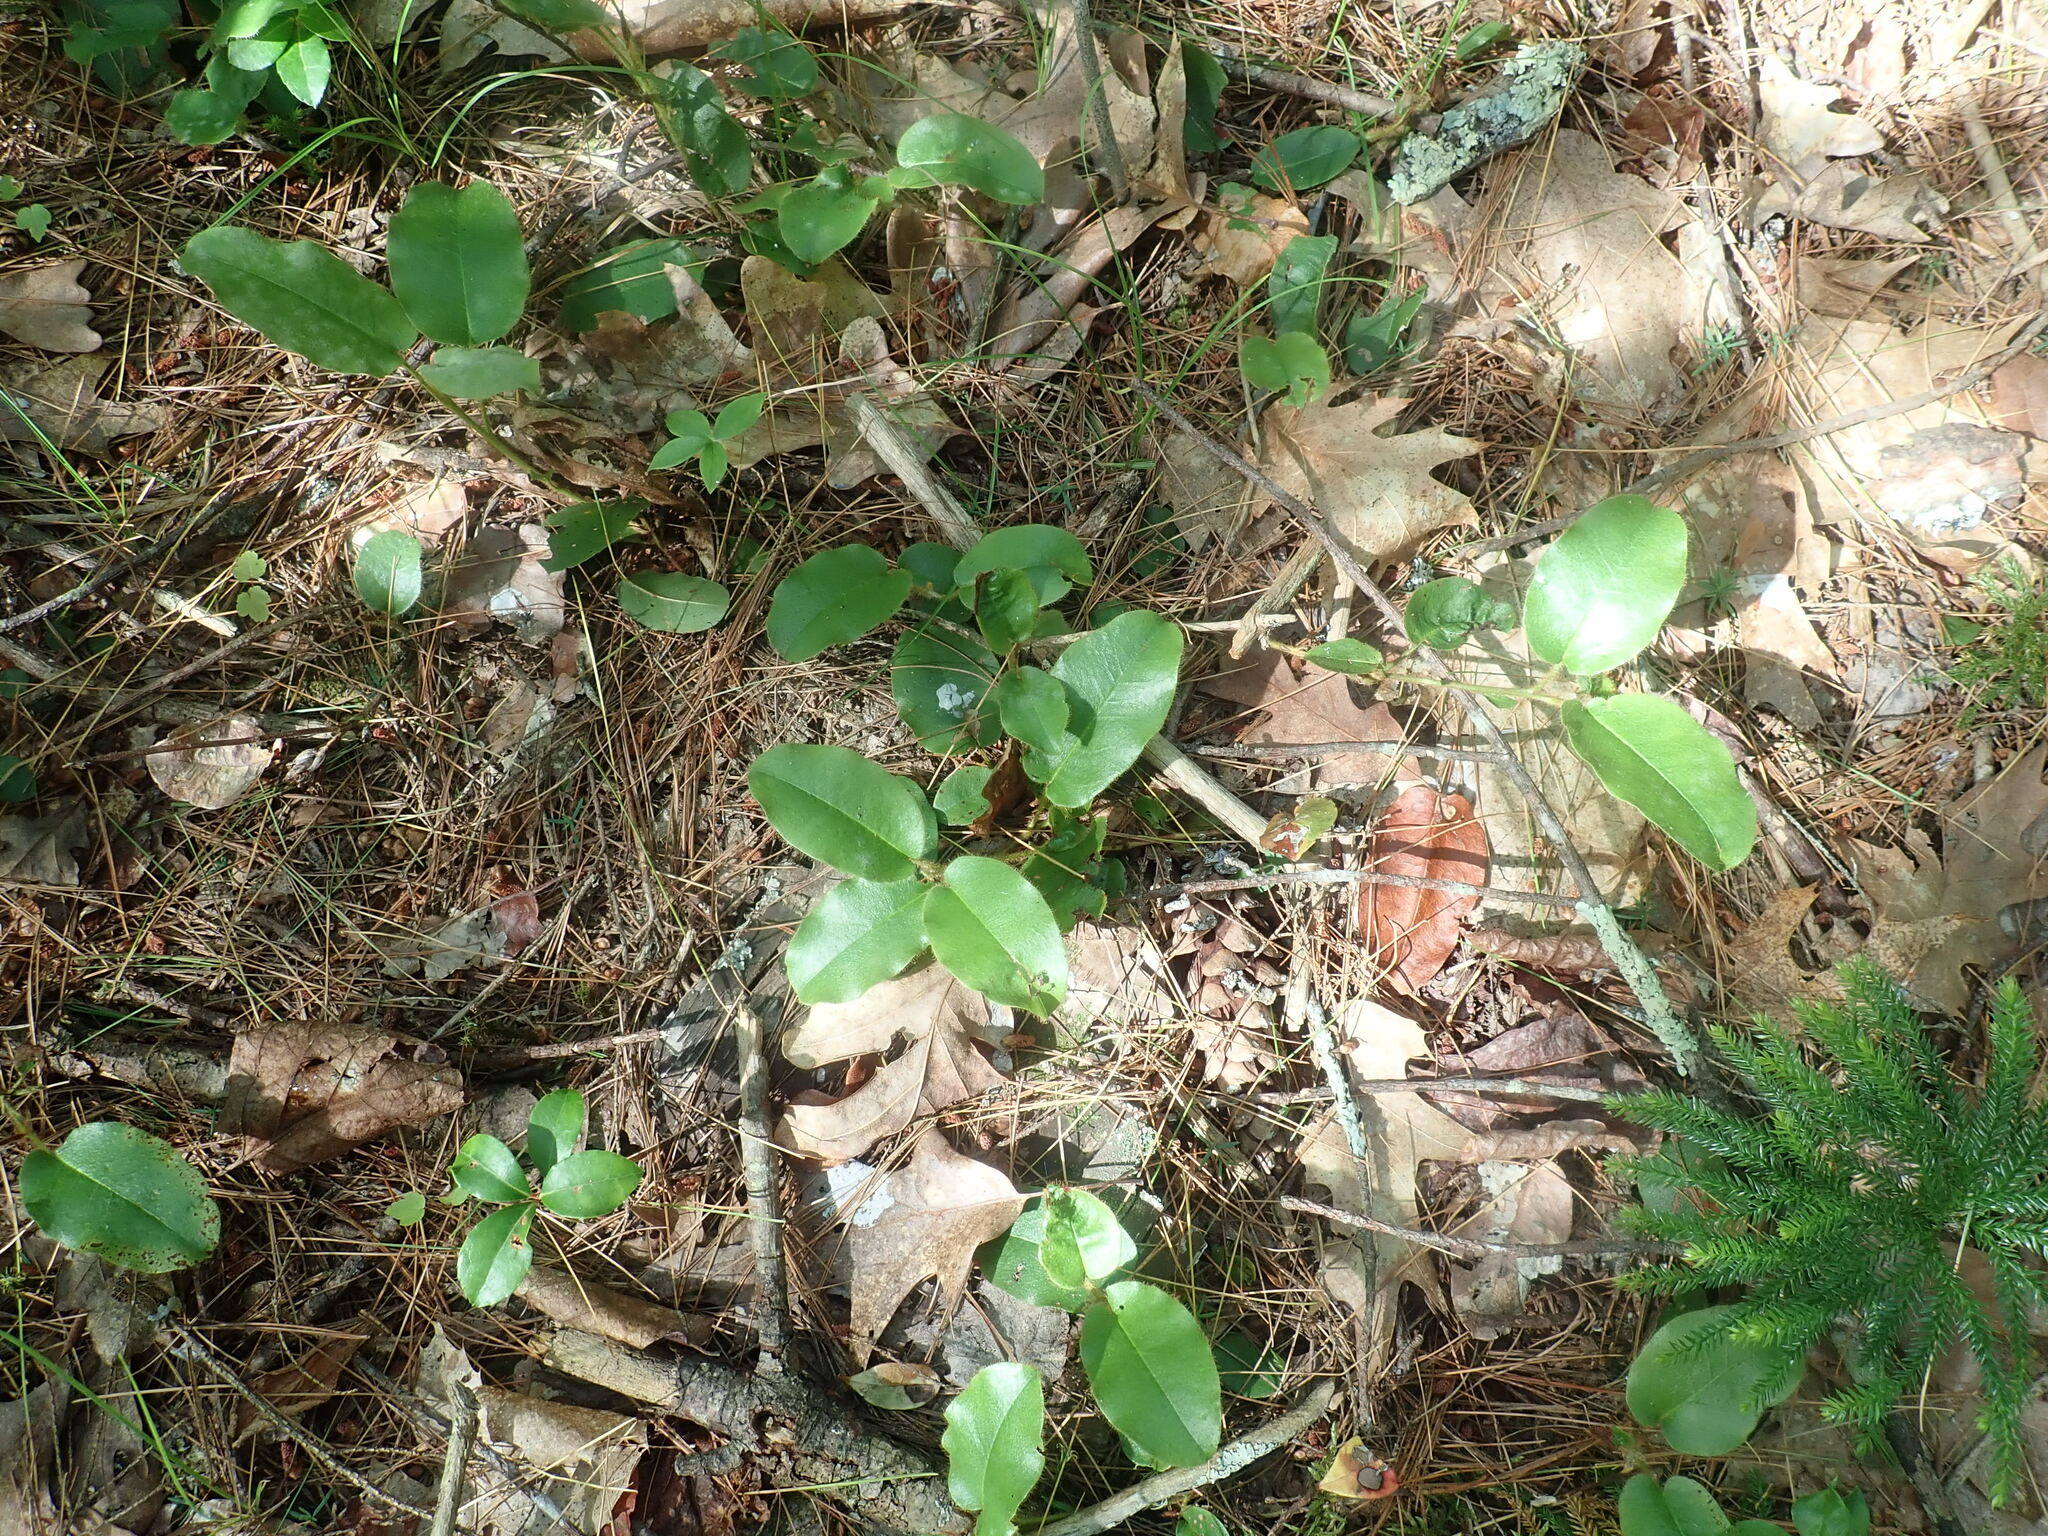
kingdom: Plantae
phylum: Tracheophyta
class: Magnoliopsida
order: Ericales
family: Ericaceae
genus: Epigaea
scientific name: Epigaea repens
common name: Gravelroot
